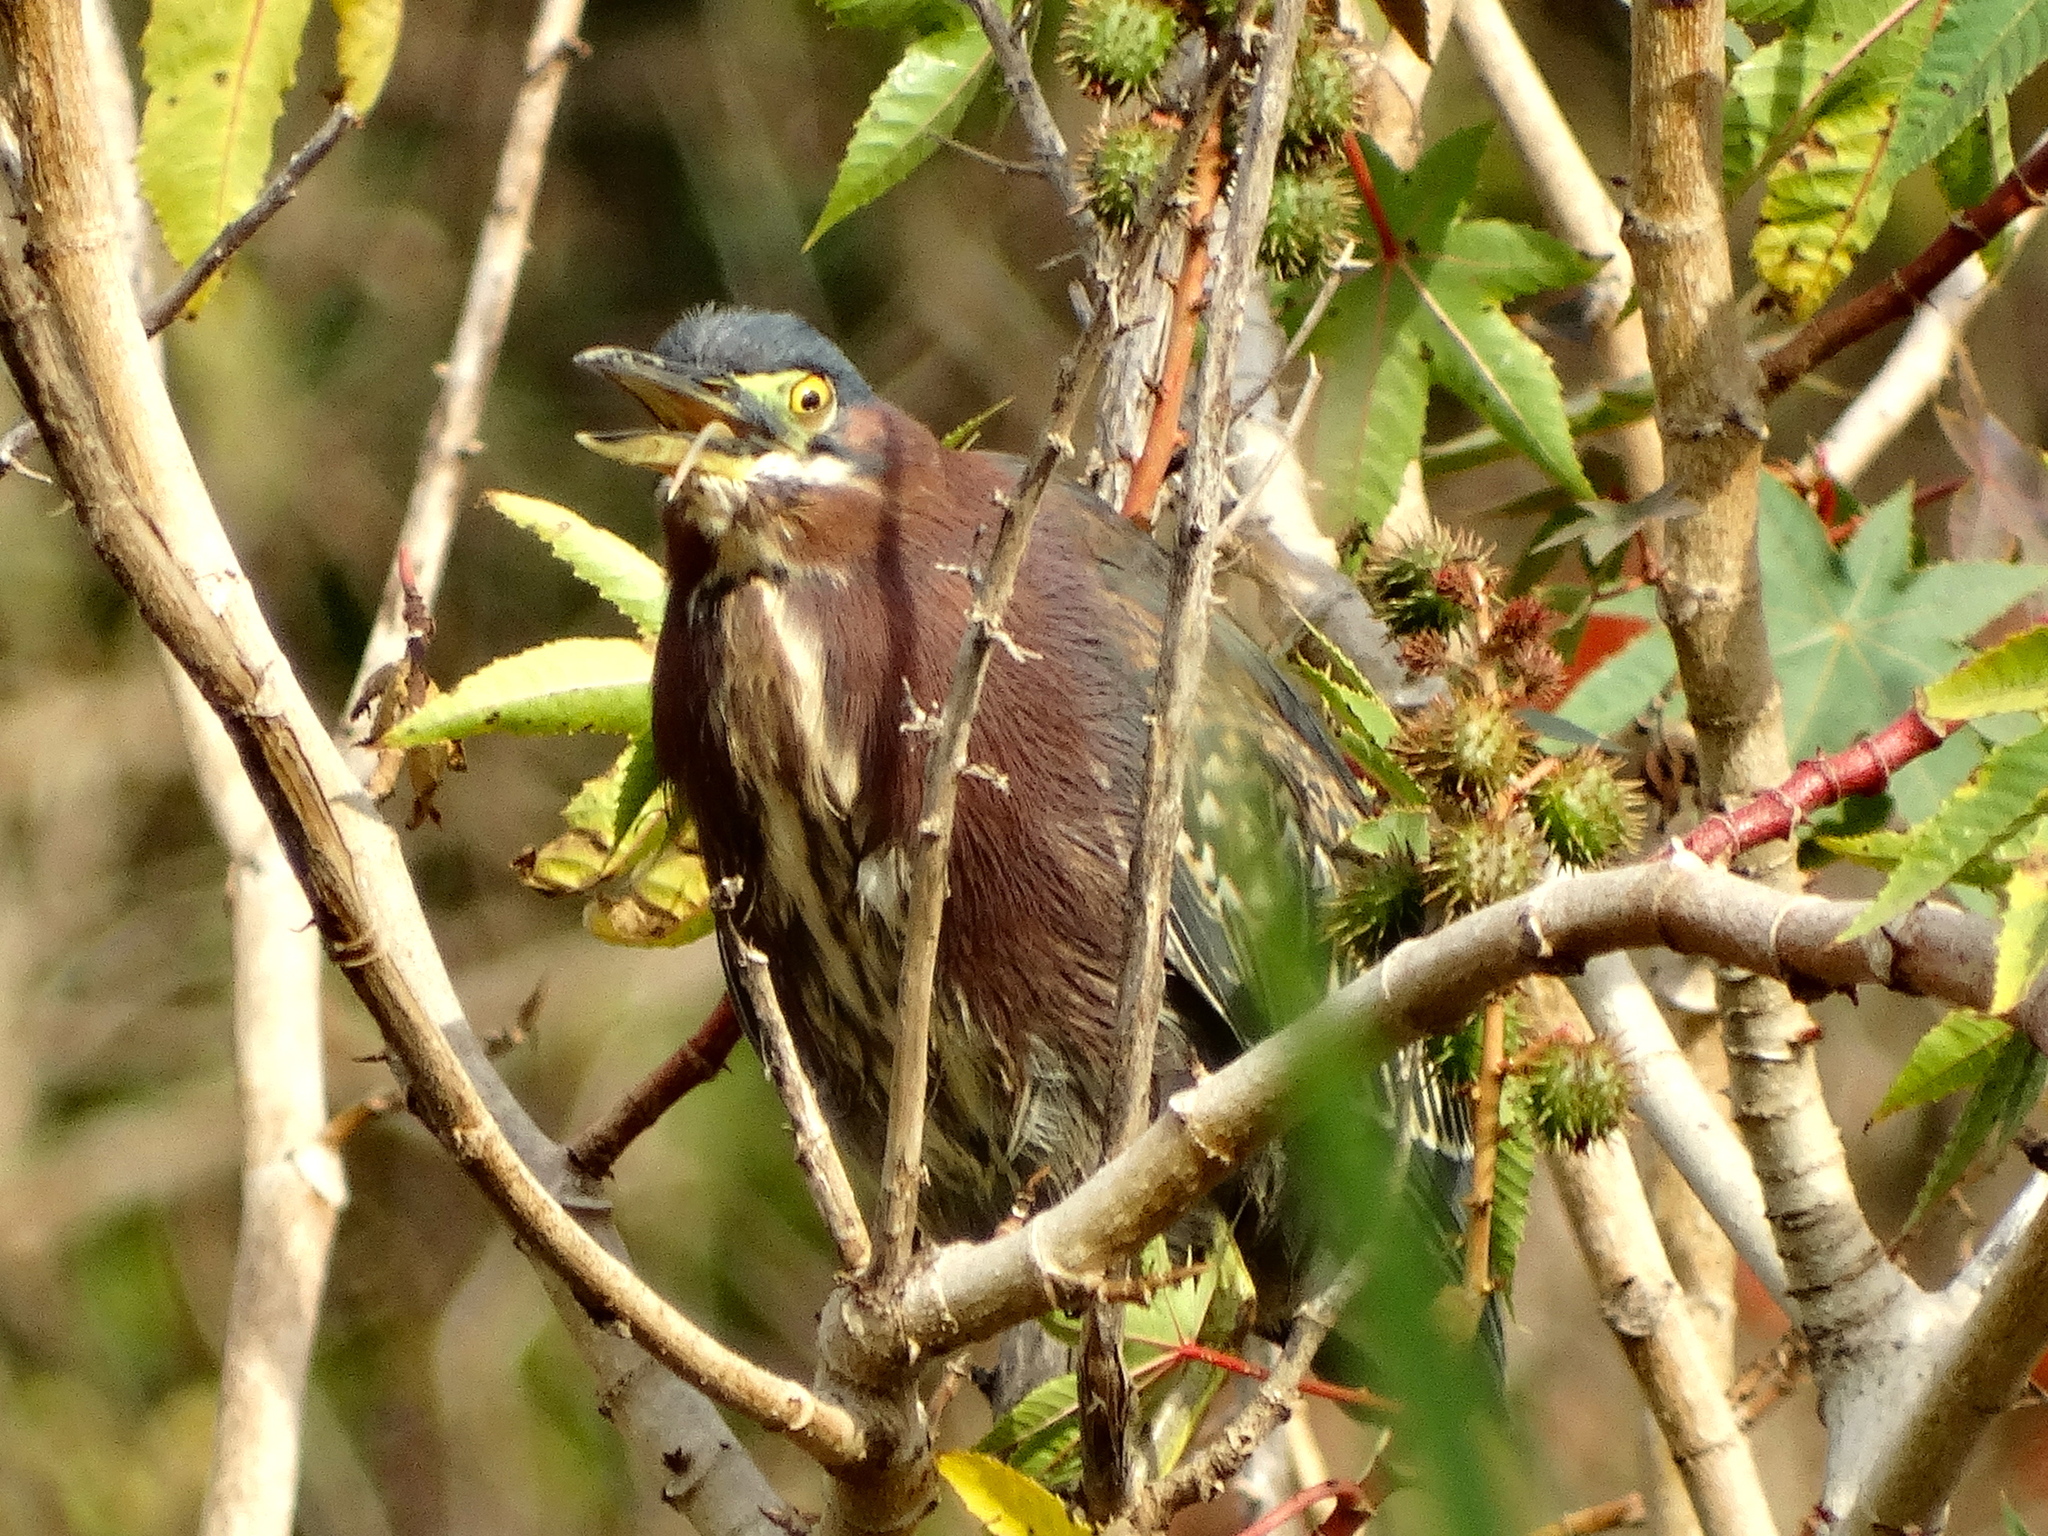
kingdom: Animalia
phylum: Chordata
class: Aves
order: Pelecaniformes
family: Ardeidae
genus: Butorides
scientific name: Butorides virescens
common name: Green heron
